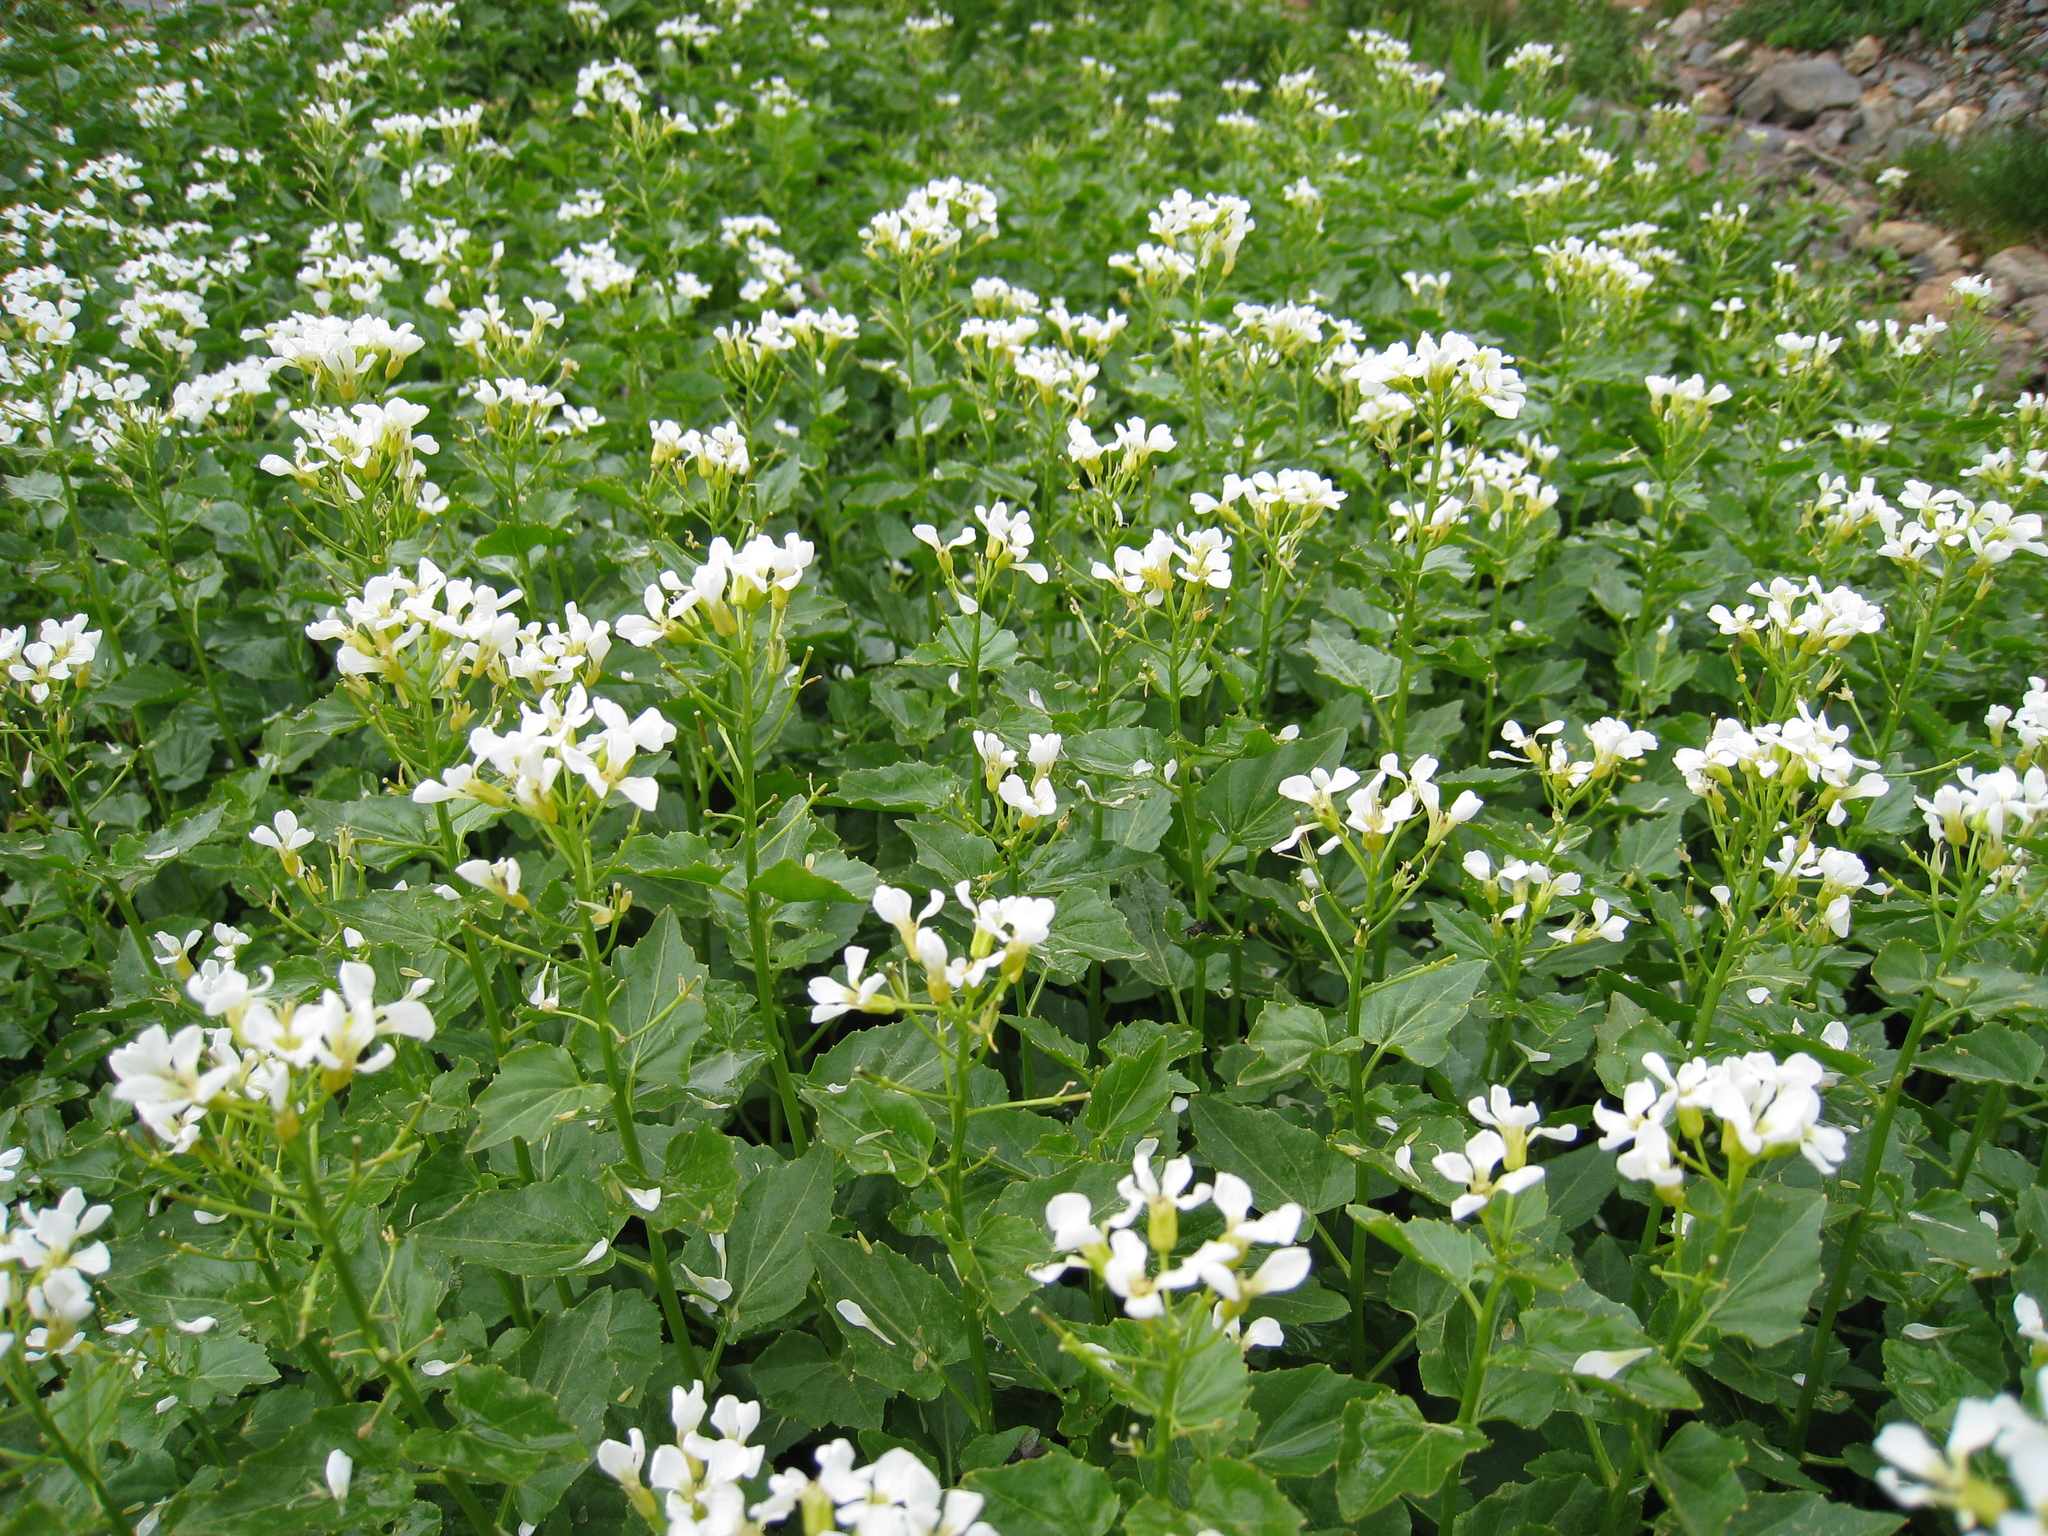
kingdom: Plantae
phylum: Tracheophyta
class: Magnoliopsida
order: Brassicales
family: Brassicaceae
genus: Thlaspi
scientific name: Thlaspi arvense
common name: Field pennycress
